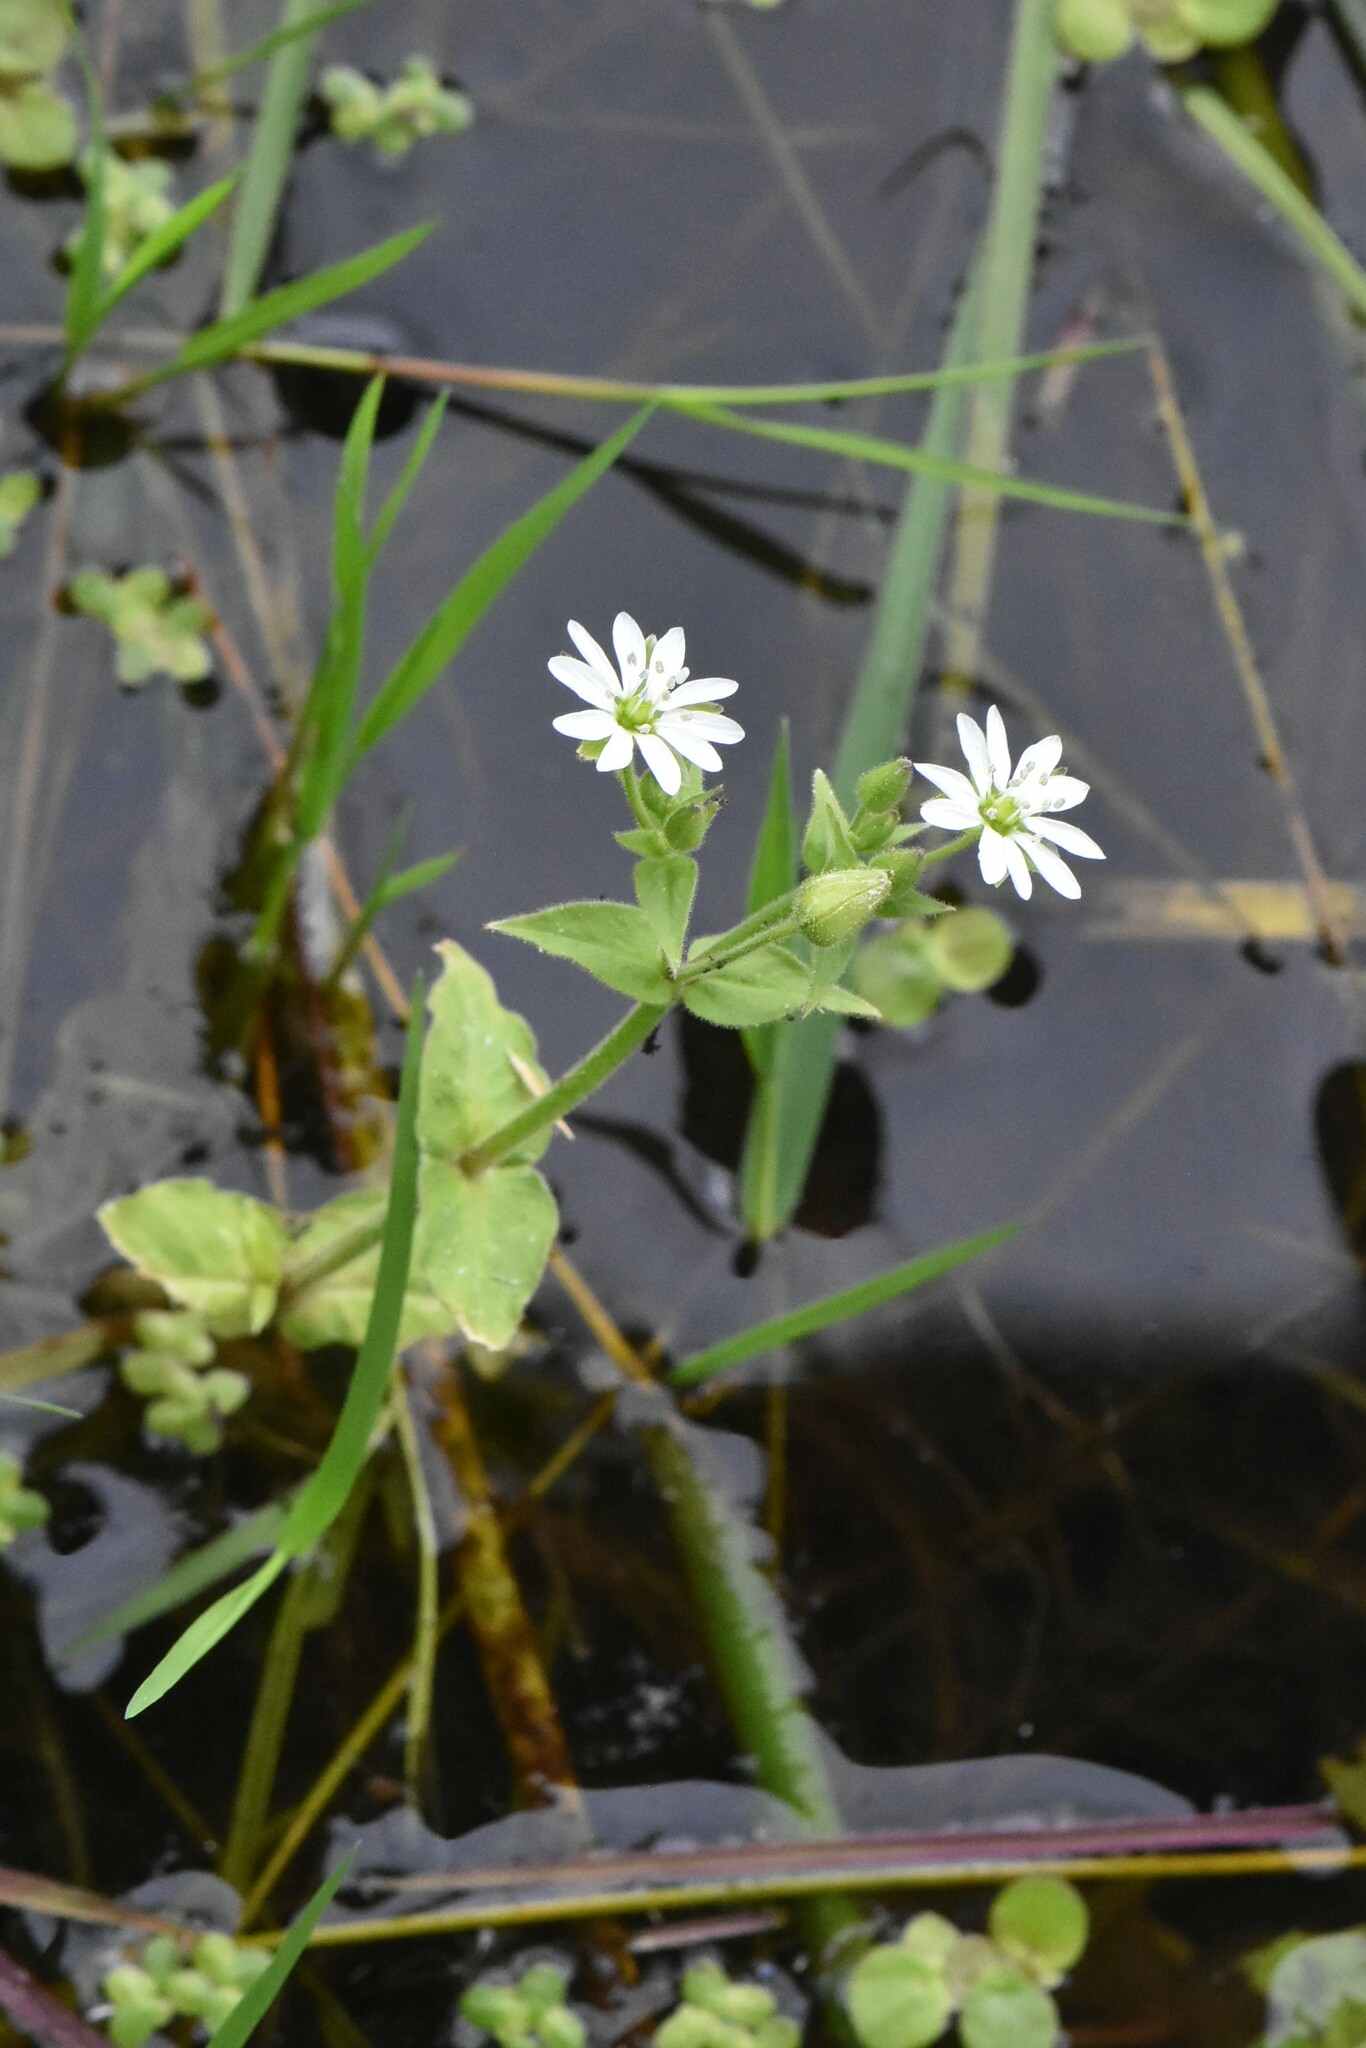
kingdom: Plantae
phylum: Tracheophyta
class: Magnoliopsida
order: Caryophyllales
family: Caryophyllaceae
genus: Stellaria
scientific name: Stellaria aquatica
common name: Water chickweed
